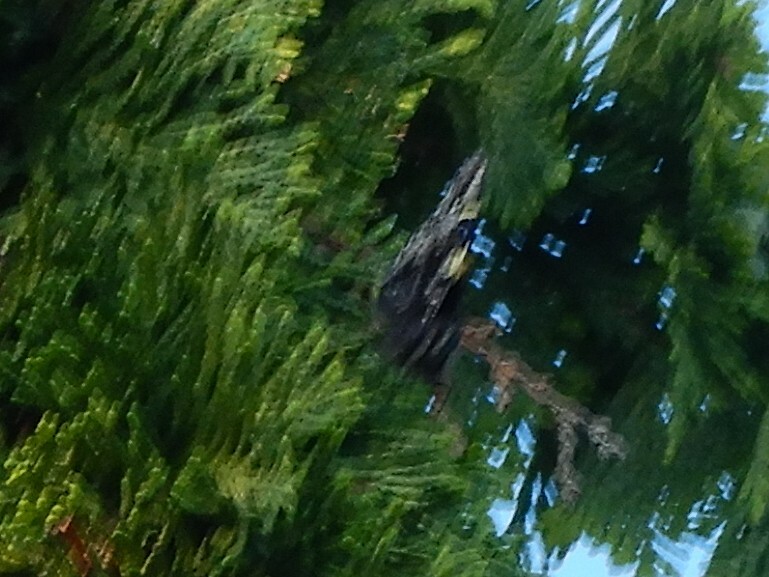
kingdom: Animalia
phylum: Arthropoda
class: Insecta
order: Lepidoptera
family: Nymphalidae
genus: Vanessa
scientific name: Vanessa itea
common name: Yellow admiral
